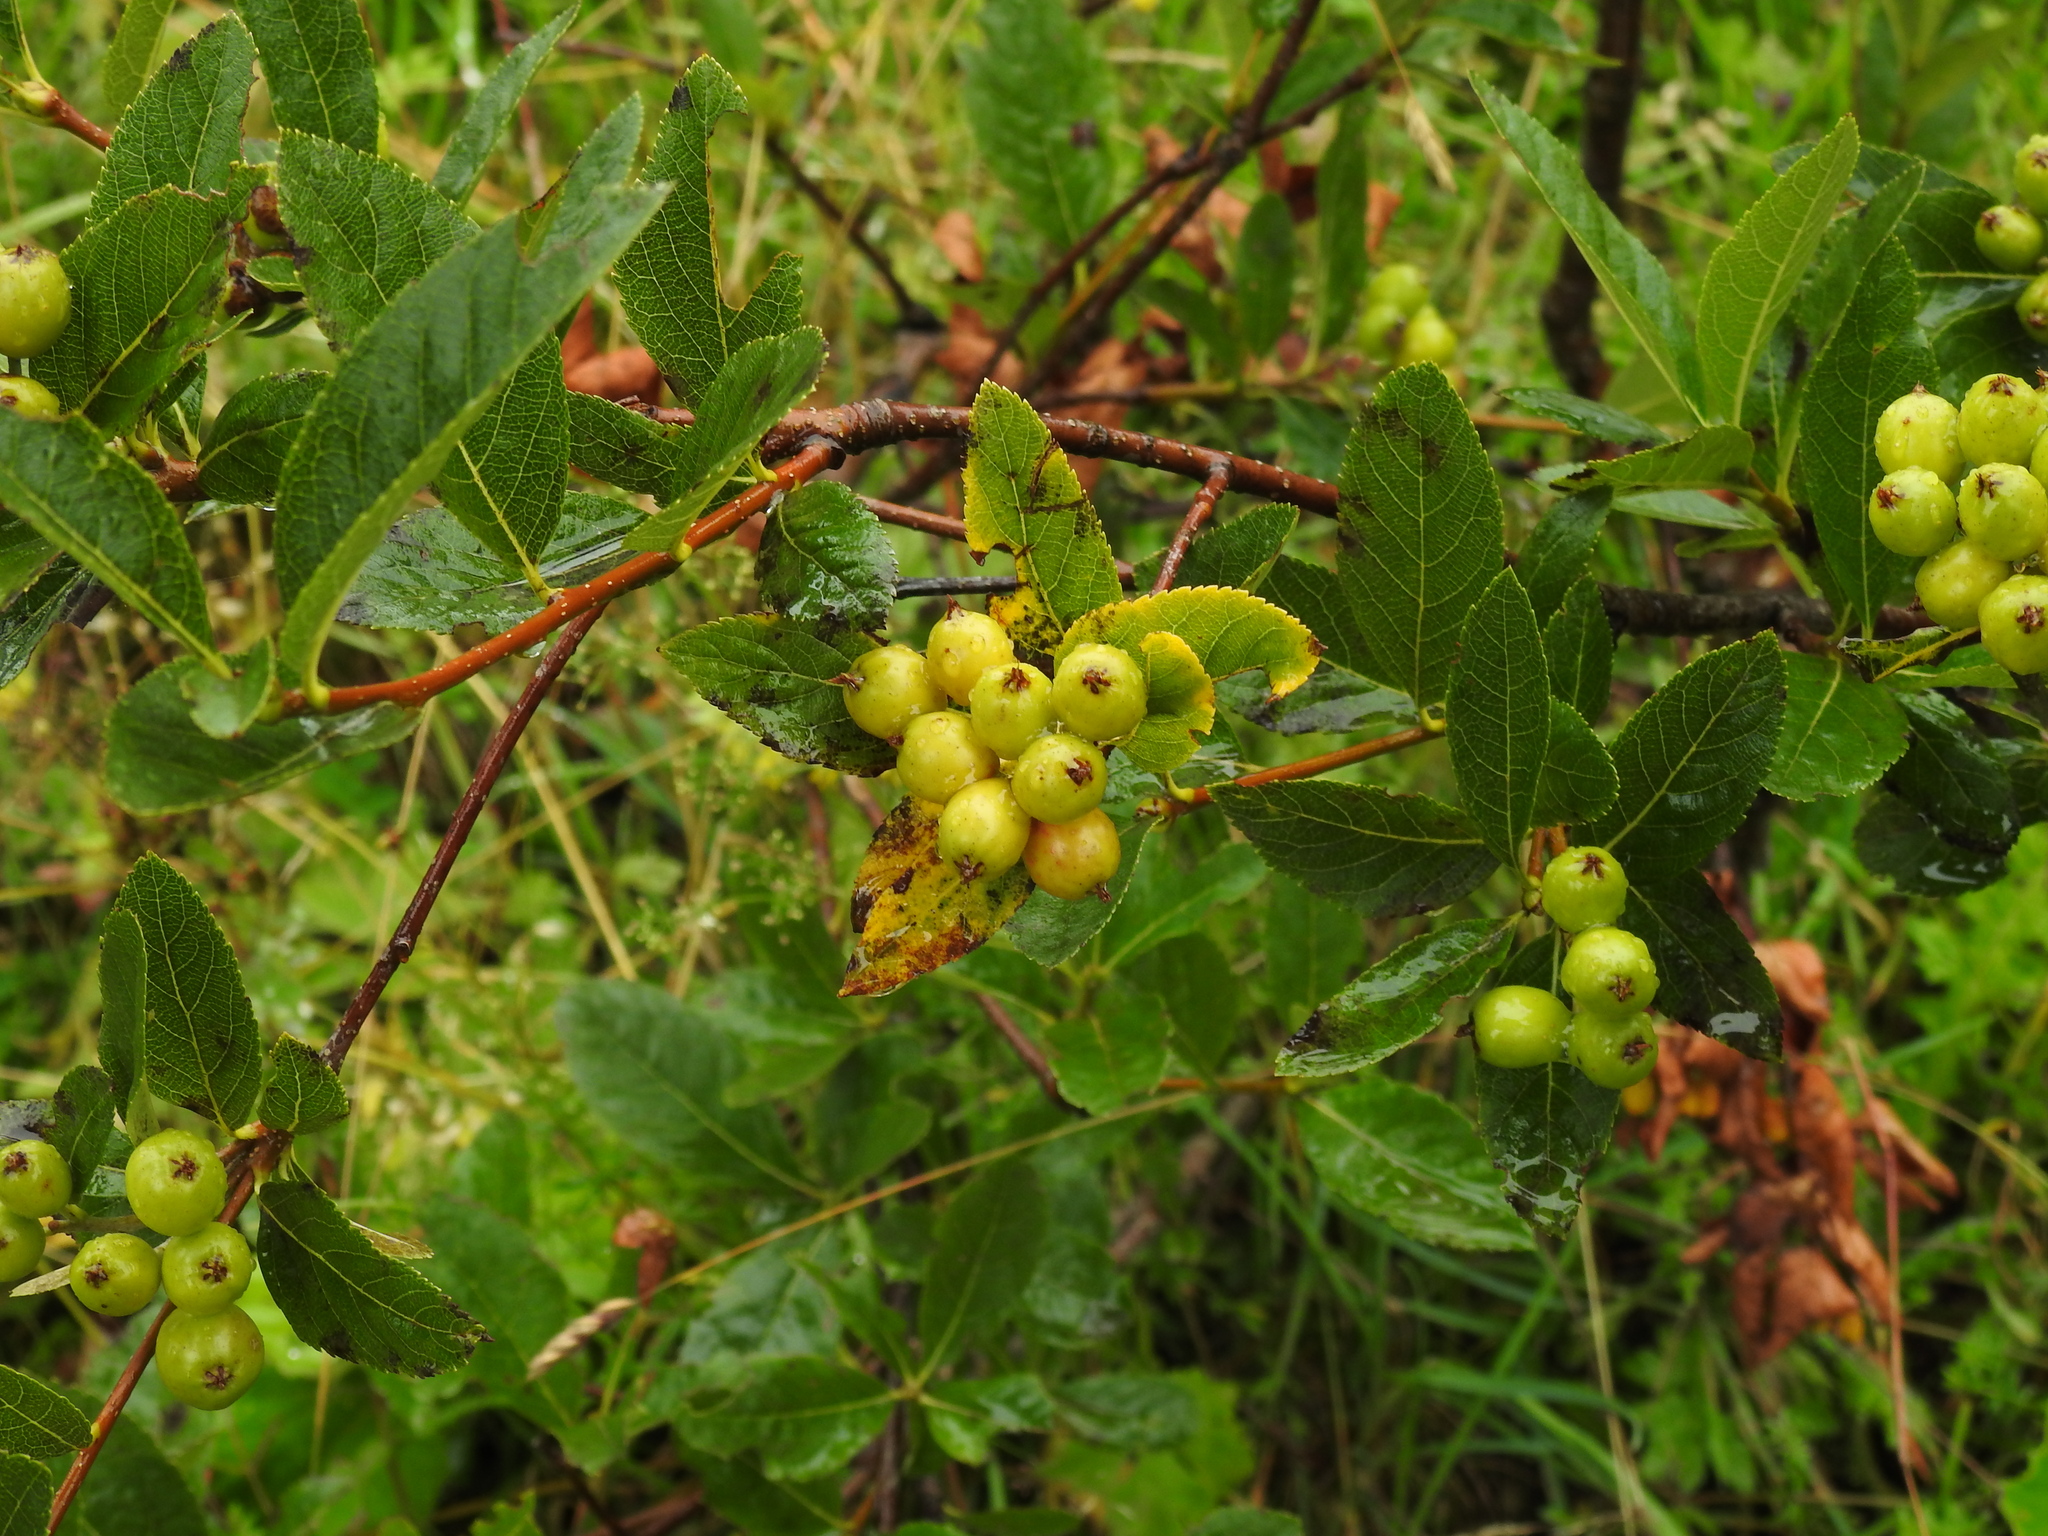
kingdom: Plantae
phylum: Tracheophyta
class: Magnoliopsida
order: Rosales
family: Rosaceae
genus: Chamaemespilus
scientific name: Chamaemespilus alpina
